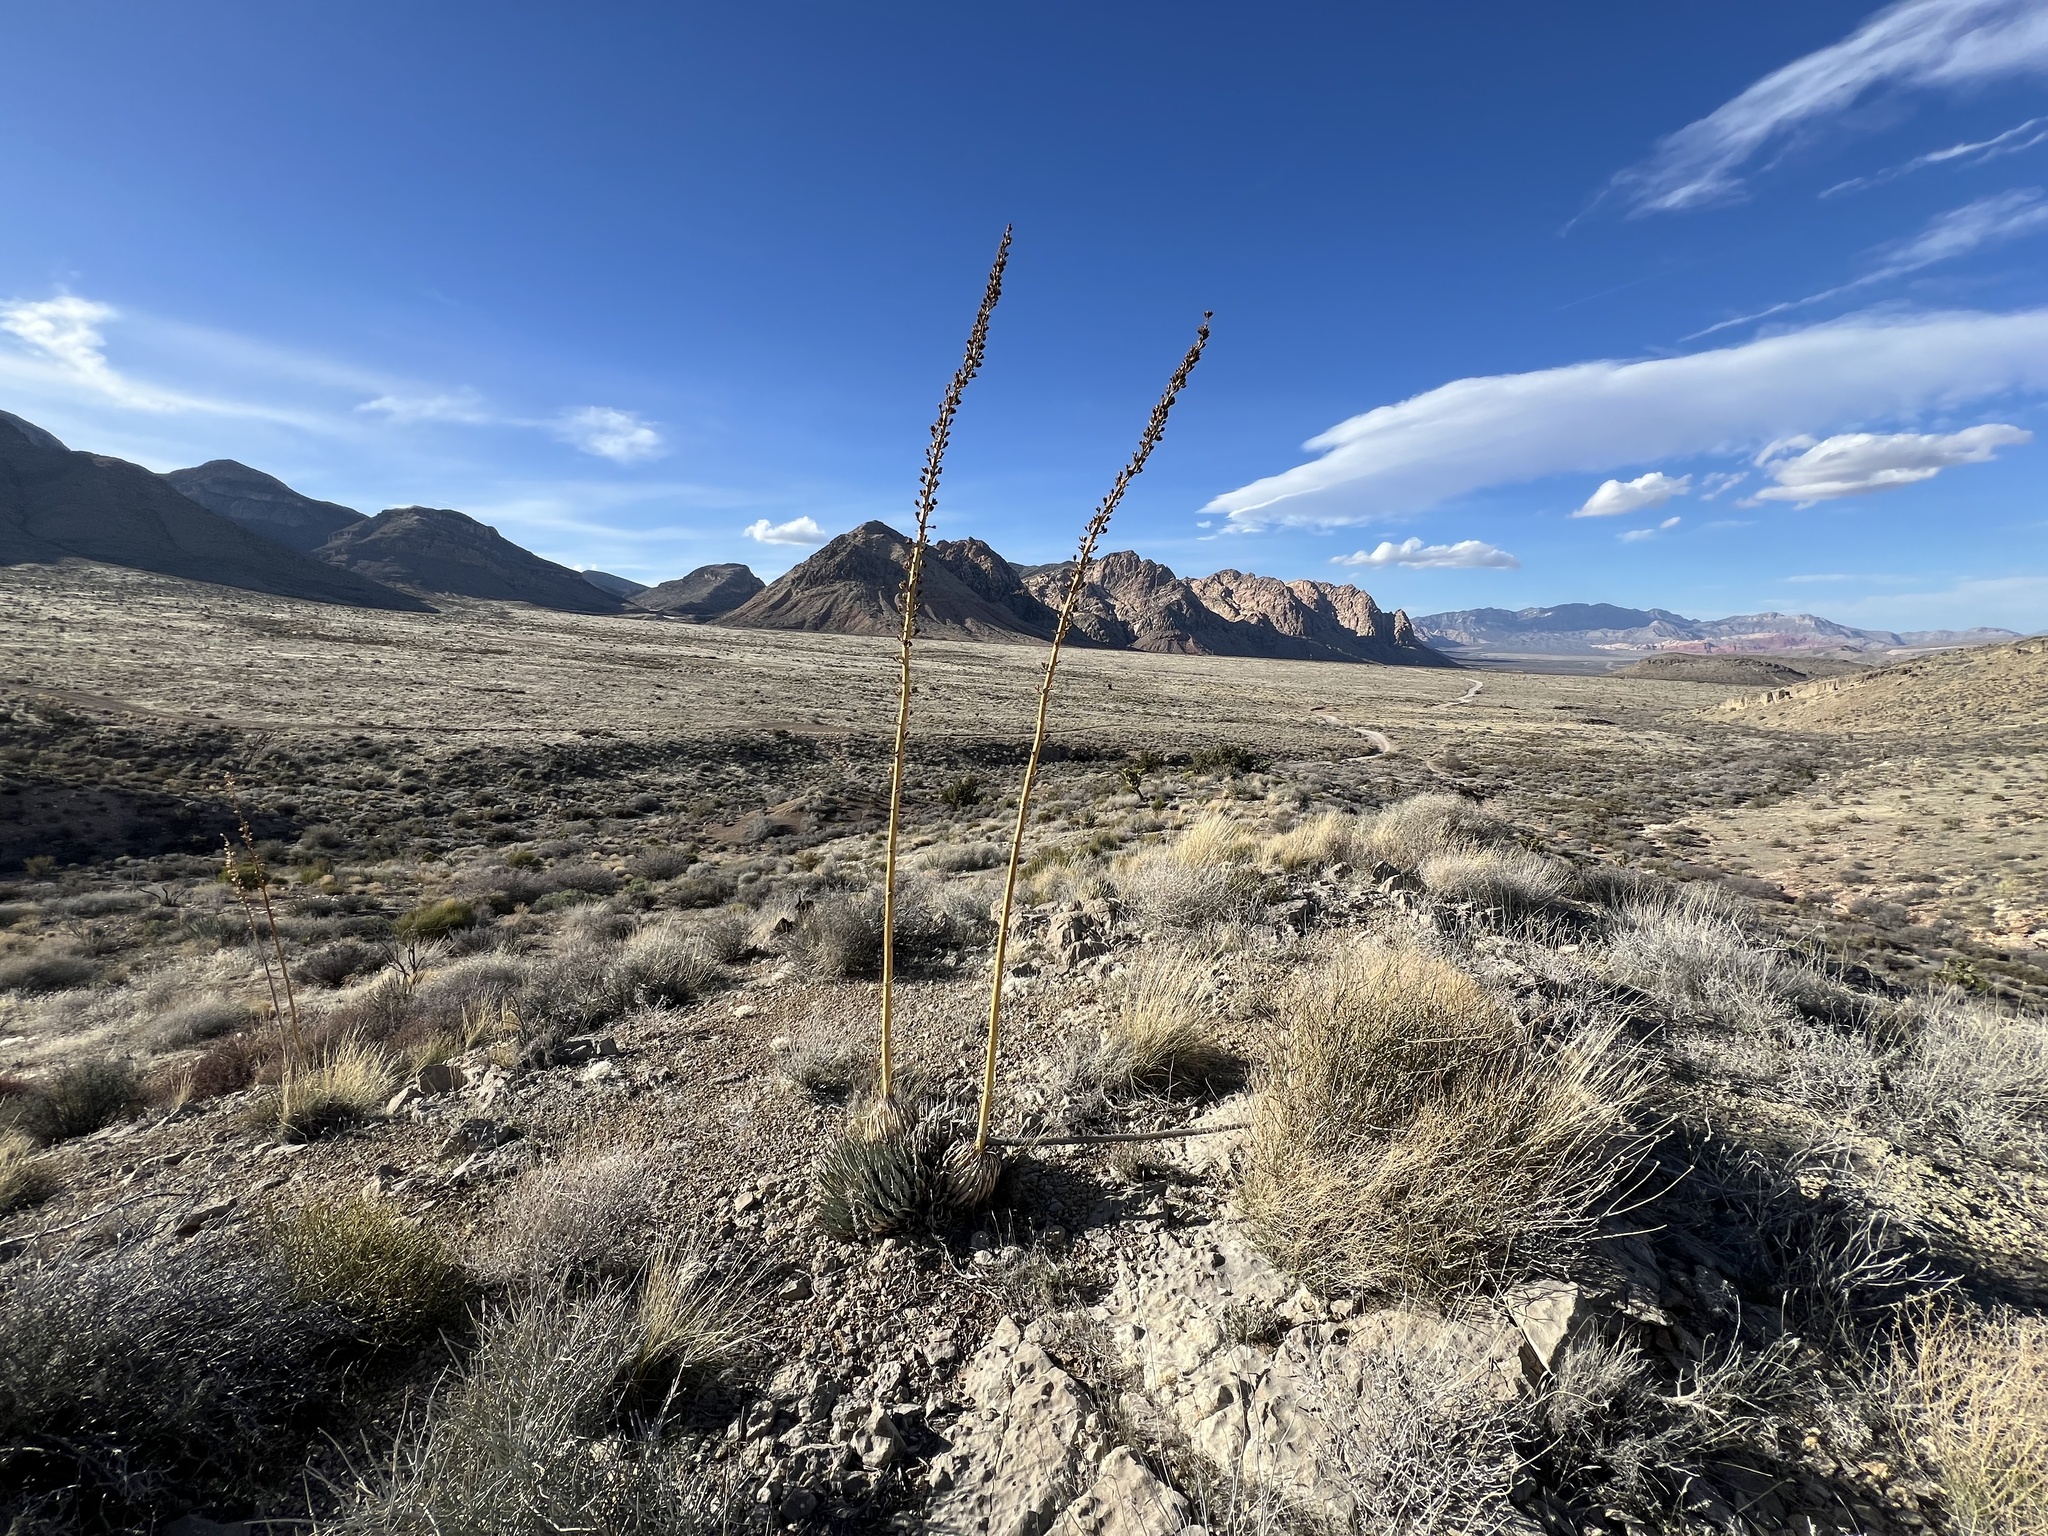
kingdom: Plantae
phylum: Tracheophyta
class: Liliopsida
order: Asparagales
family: Asparagaceae
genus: Agave
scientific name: Agave utahensis
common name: Utah agave
